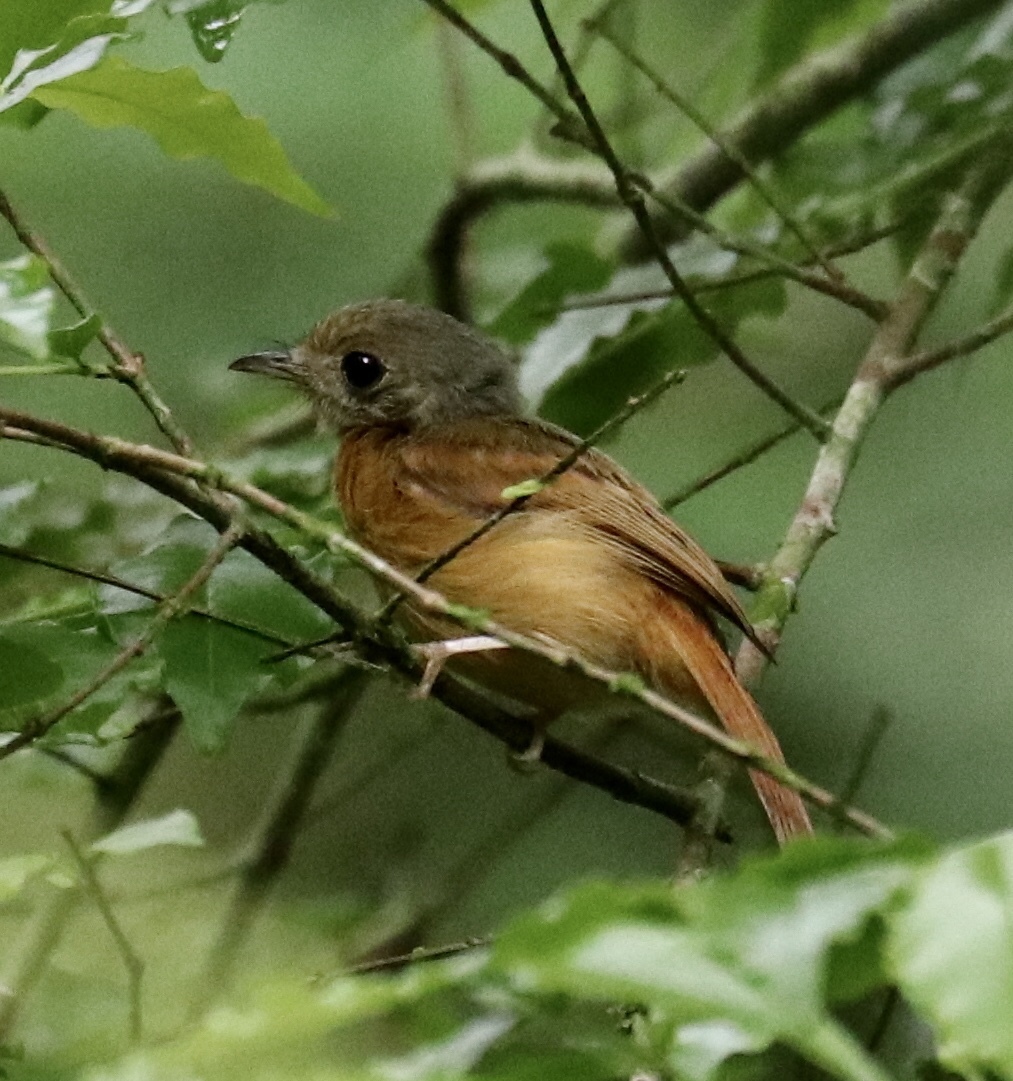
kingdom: Animalia
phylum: Chordata
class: Aves
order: Passeriformes
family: Tyrannidae
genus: Terenotriccus
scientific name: Terenotriccus erythrurus
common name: Ruddy-tailed flycatcher
